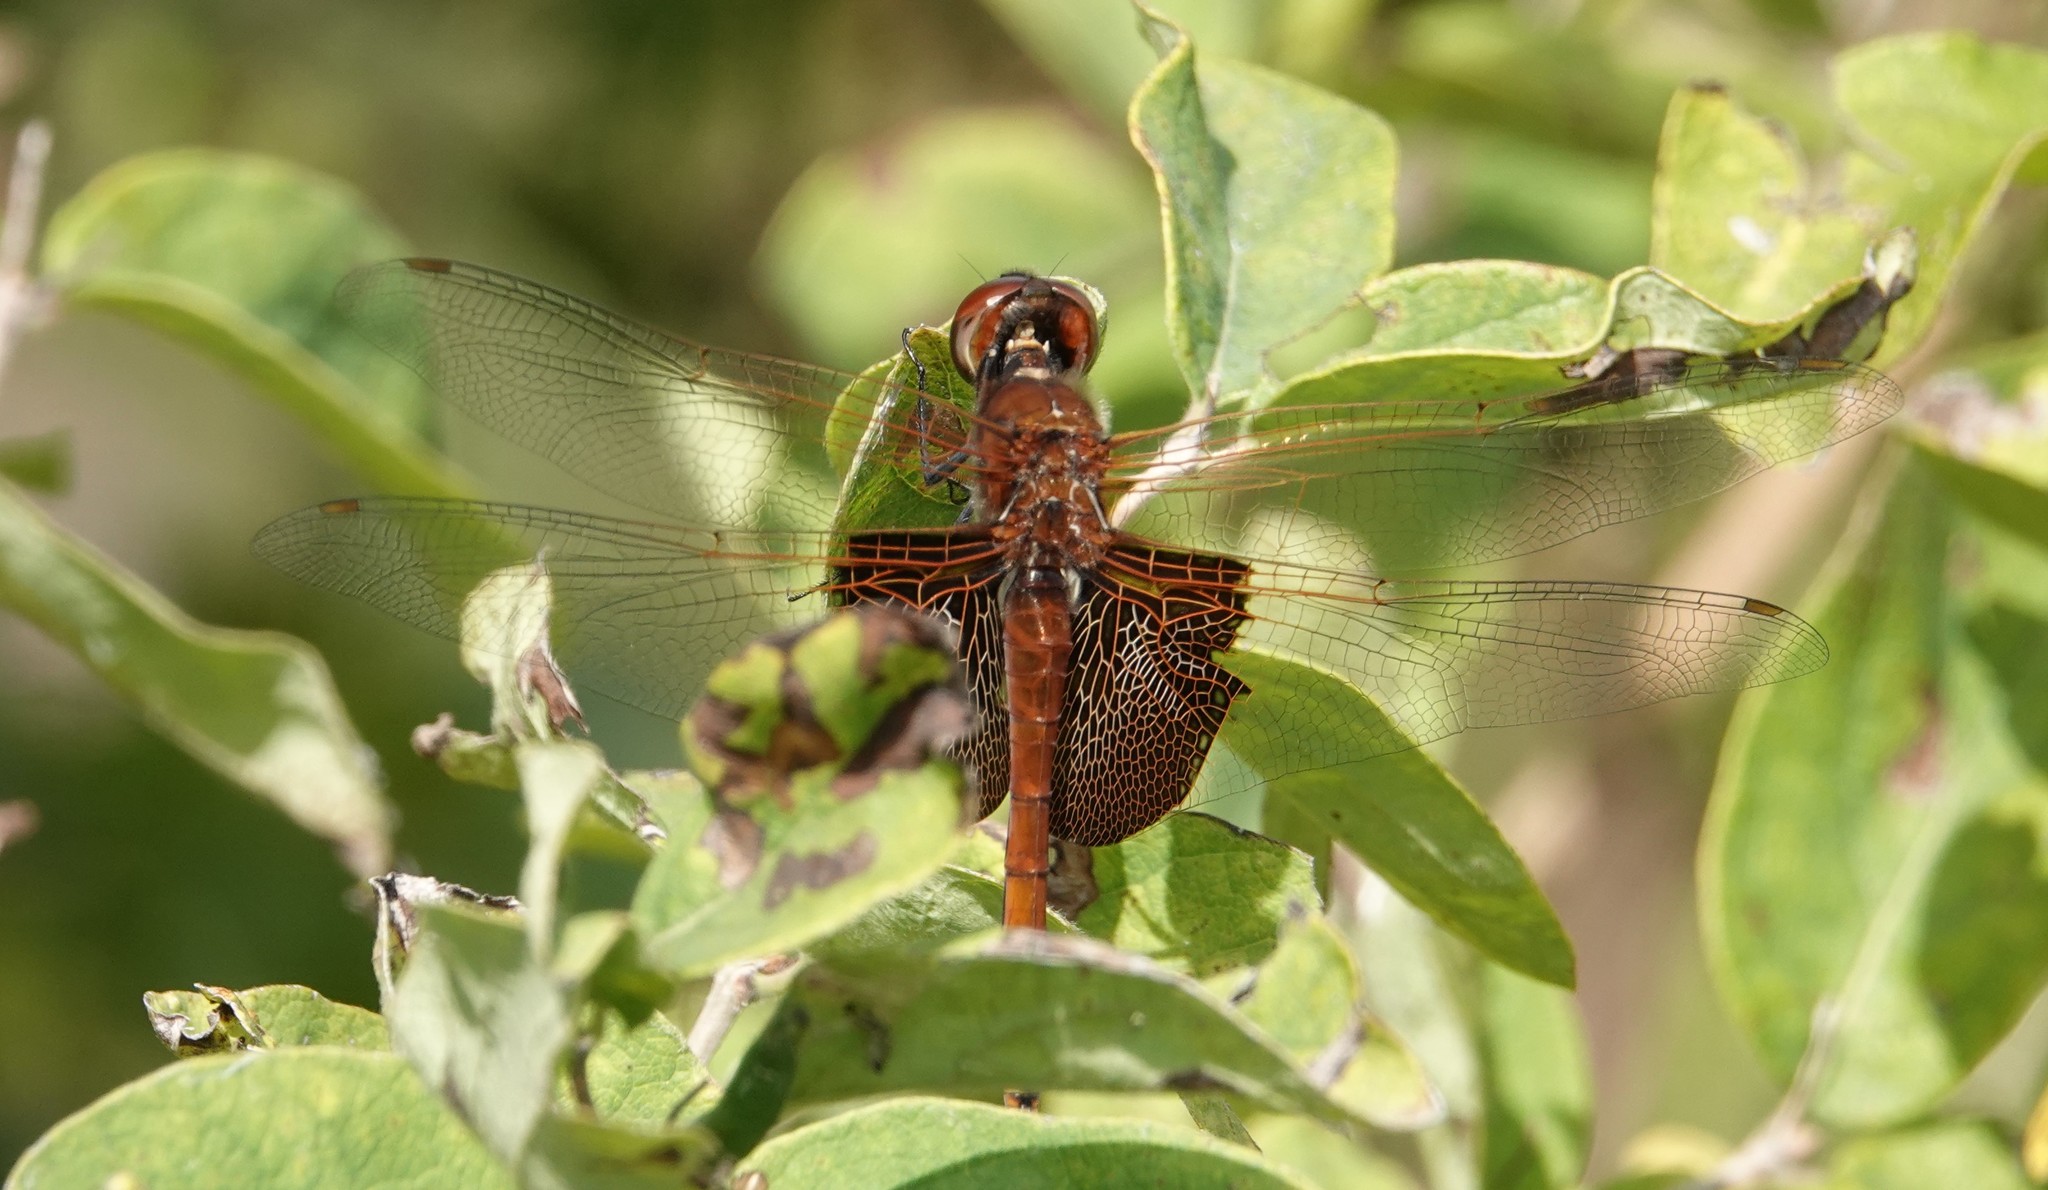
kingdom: Animalia
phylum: Arthropoda
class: Insecta
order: Odonata
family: Libellulidae
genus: Tramea
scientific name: Tramea carolina
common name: Carolina saddlebags
